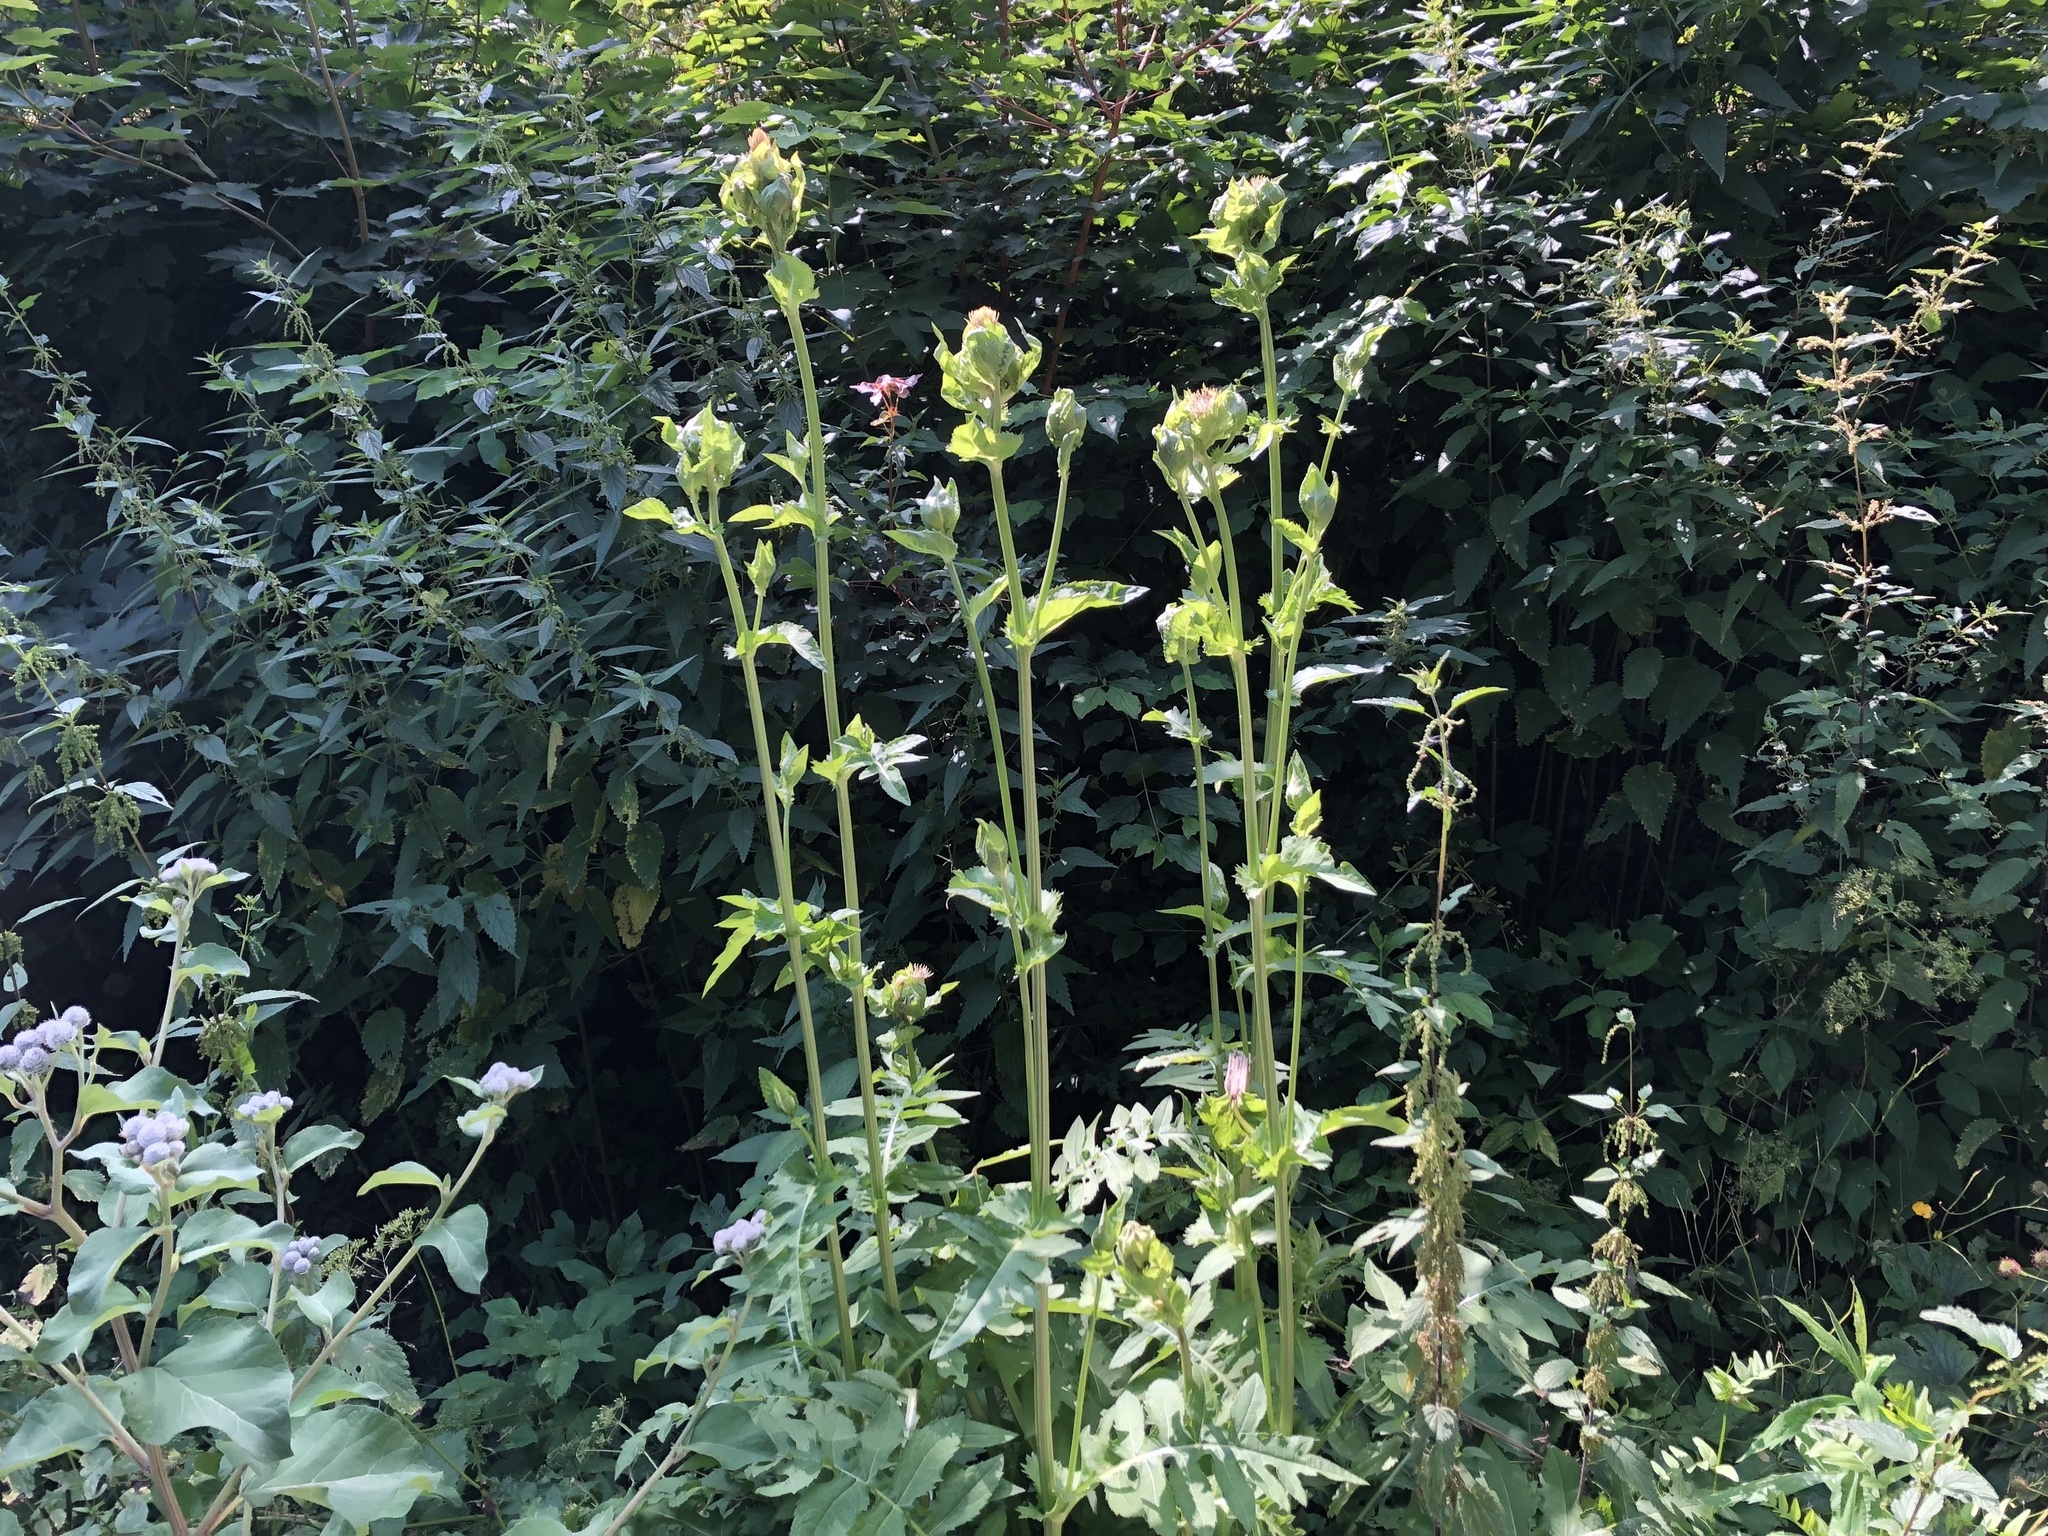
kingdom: Plantae
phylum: Tracheophyta
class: Magnoliopsida
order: Asterales
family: Asteraceae
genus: Cirsium
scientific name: Cirsium oleraceum
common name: Cabbage thistle
